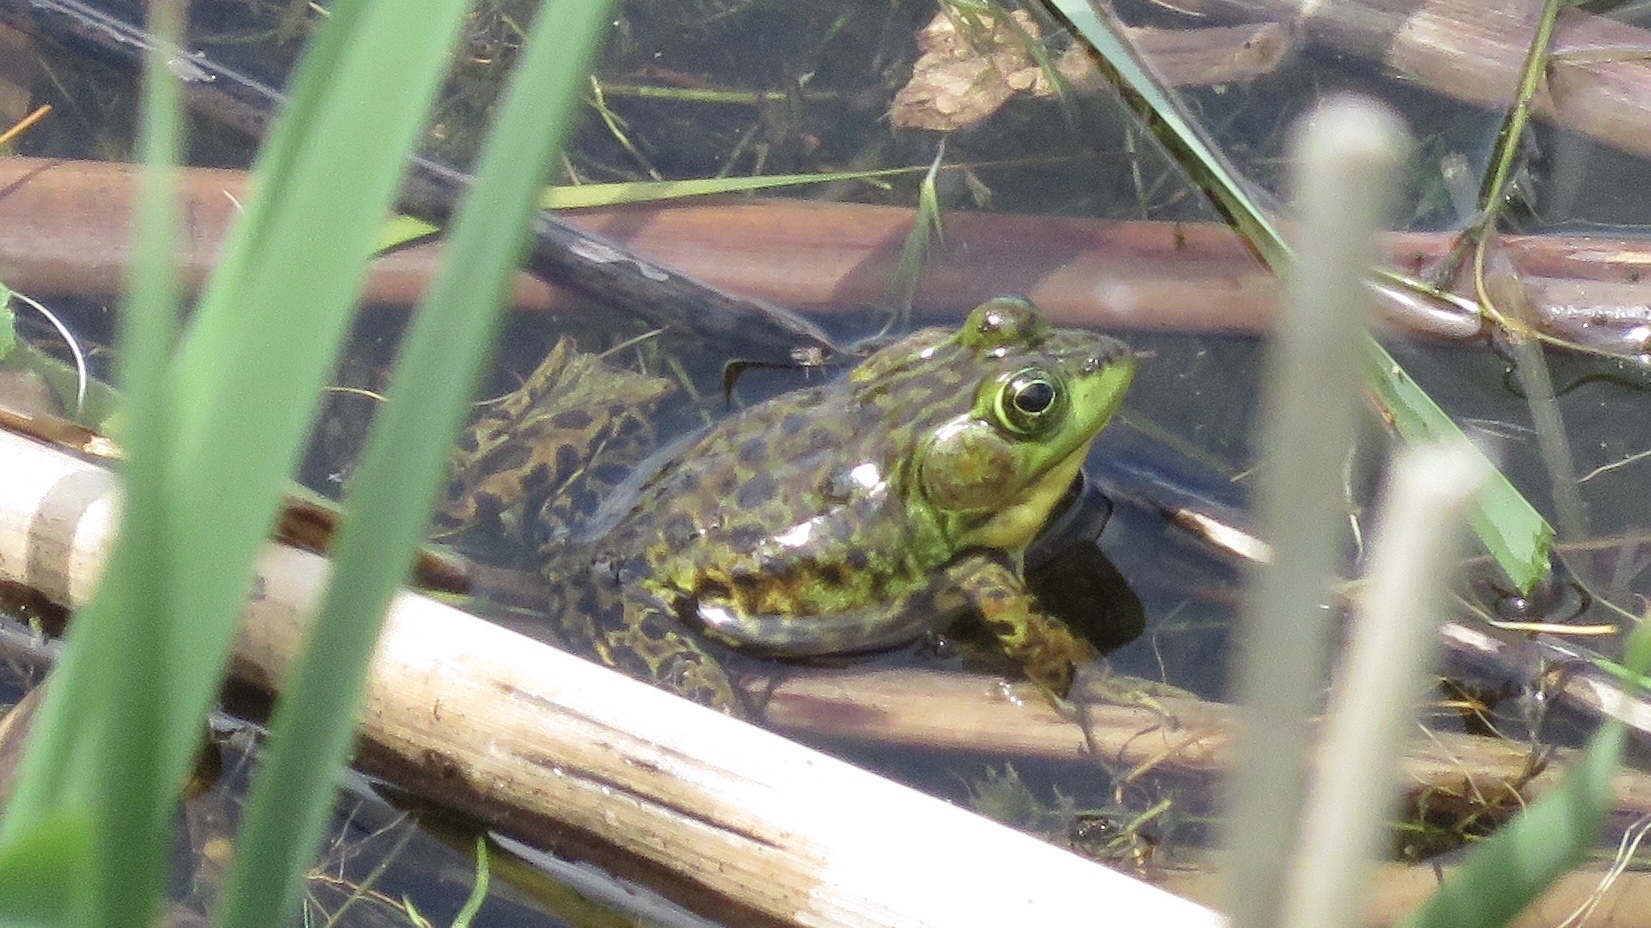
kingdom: Animalia
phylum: Chordata
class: Amphibia
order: Anura
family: Ranidae
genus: Lithobates
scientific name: Lithobates septentrionalis
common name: Mink frog
